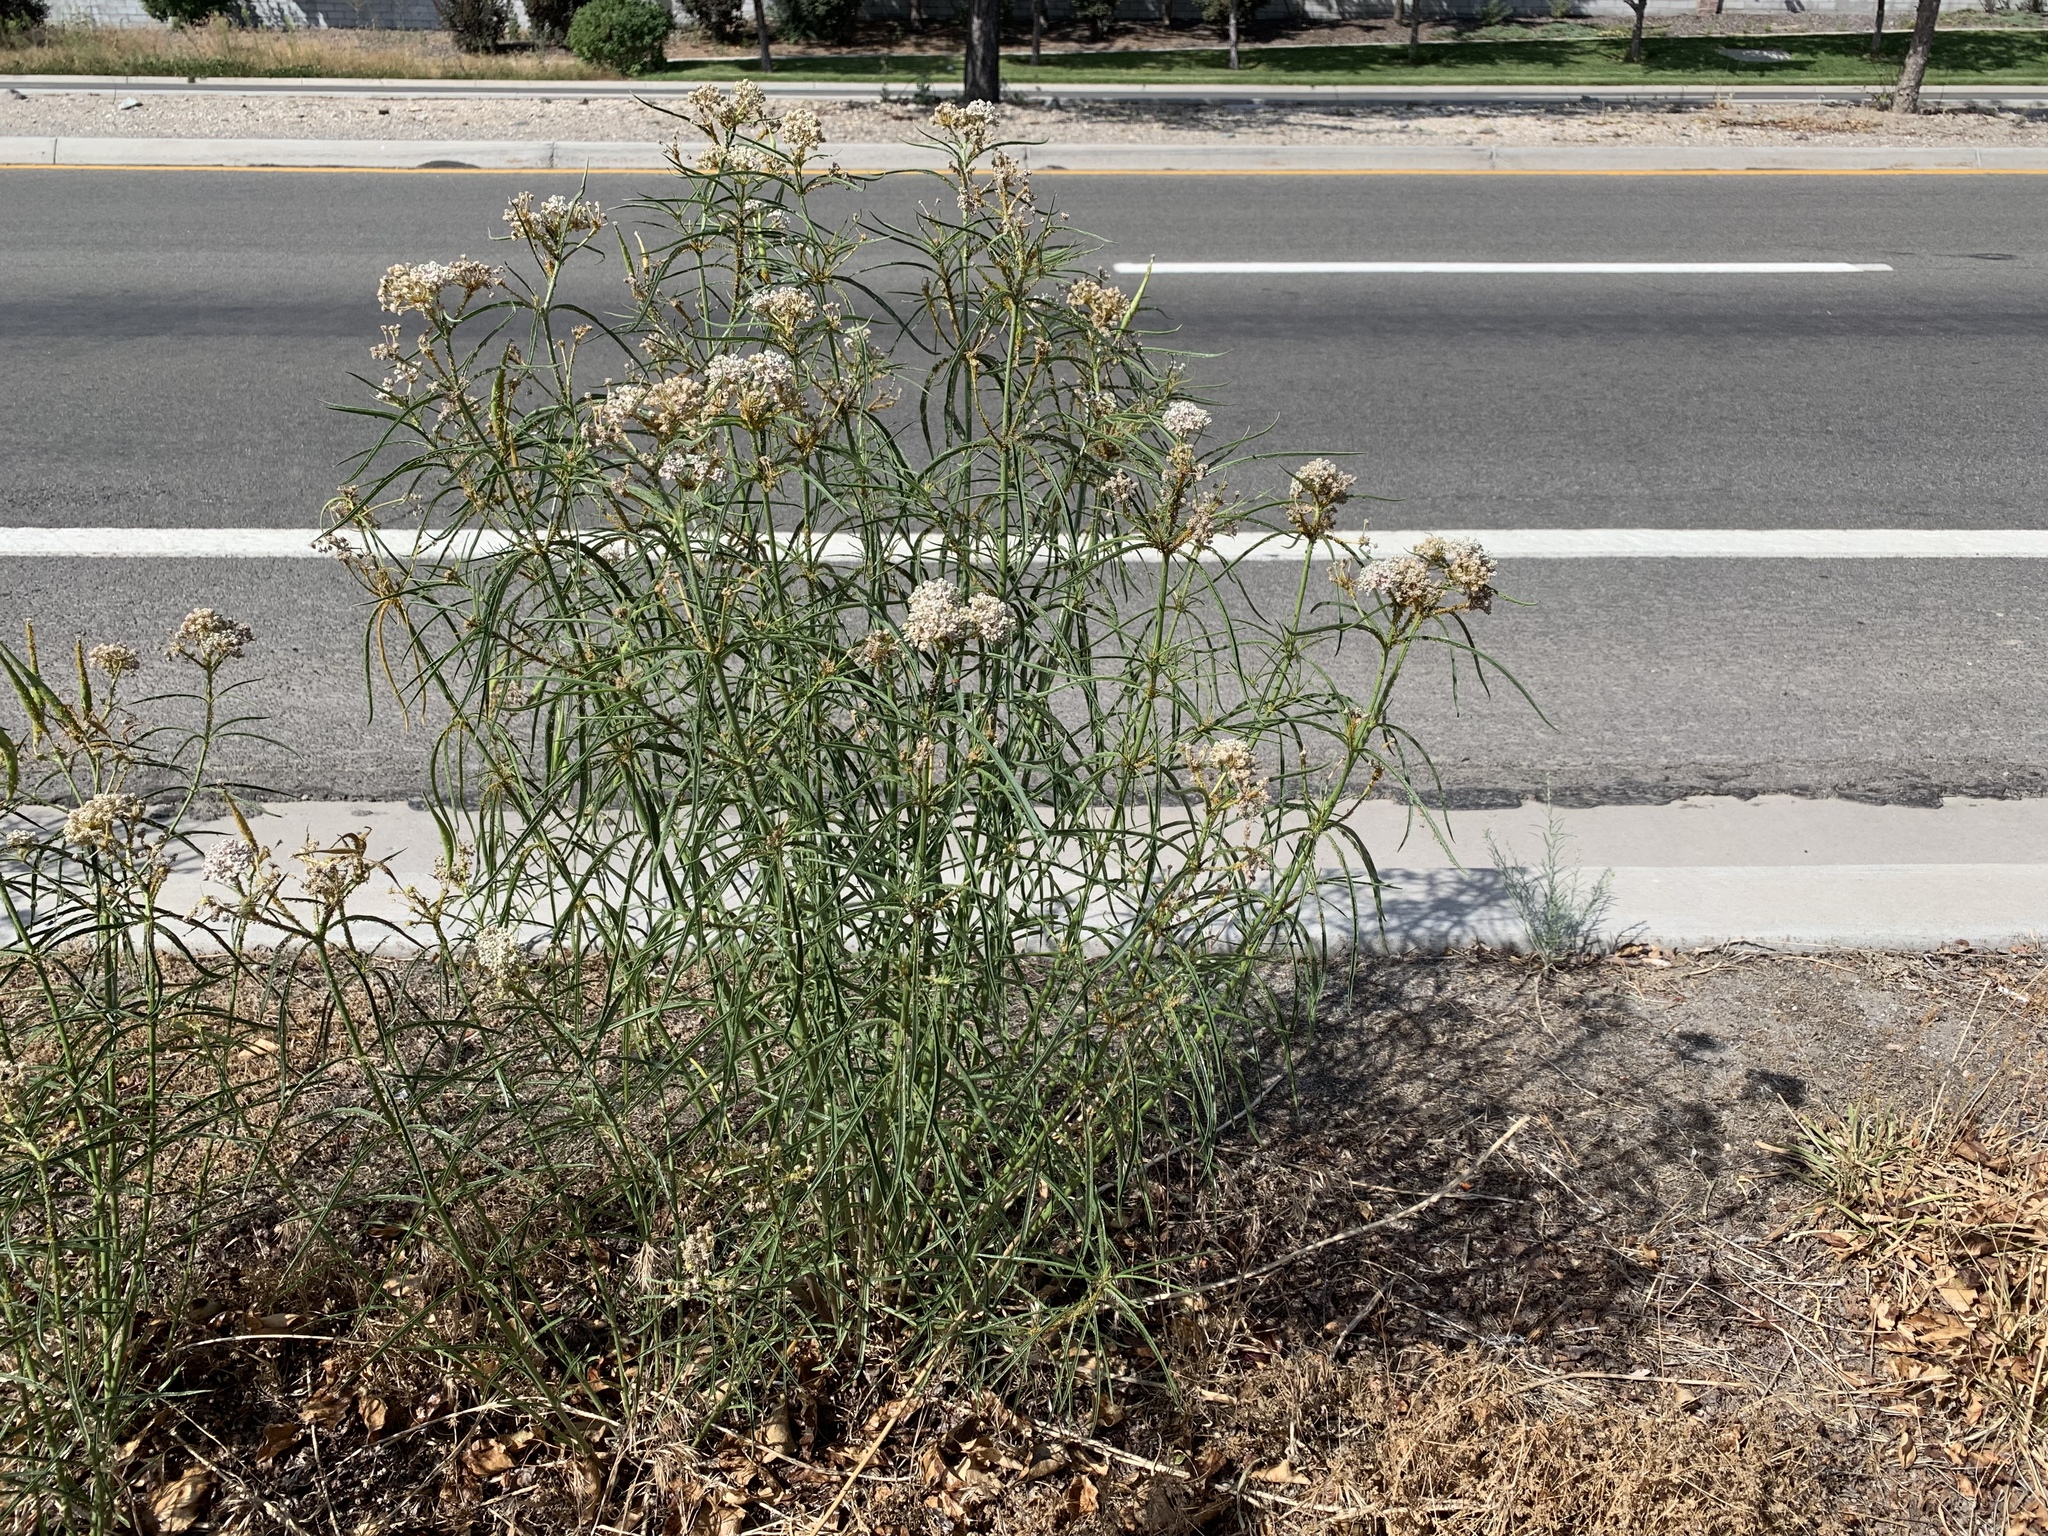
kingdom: Plantae
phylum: Tracheophyta
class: Magnoliopsida
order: Gentianales
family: Apocynaceae
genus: Asclepias
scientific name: Asclepias fascicularis
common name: Mexican milkweed
